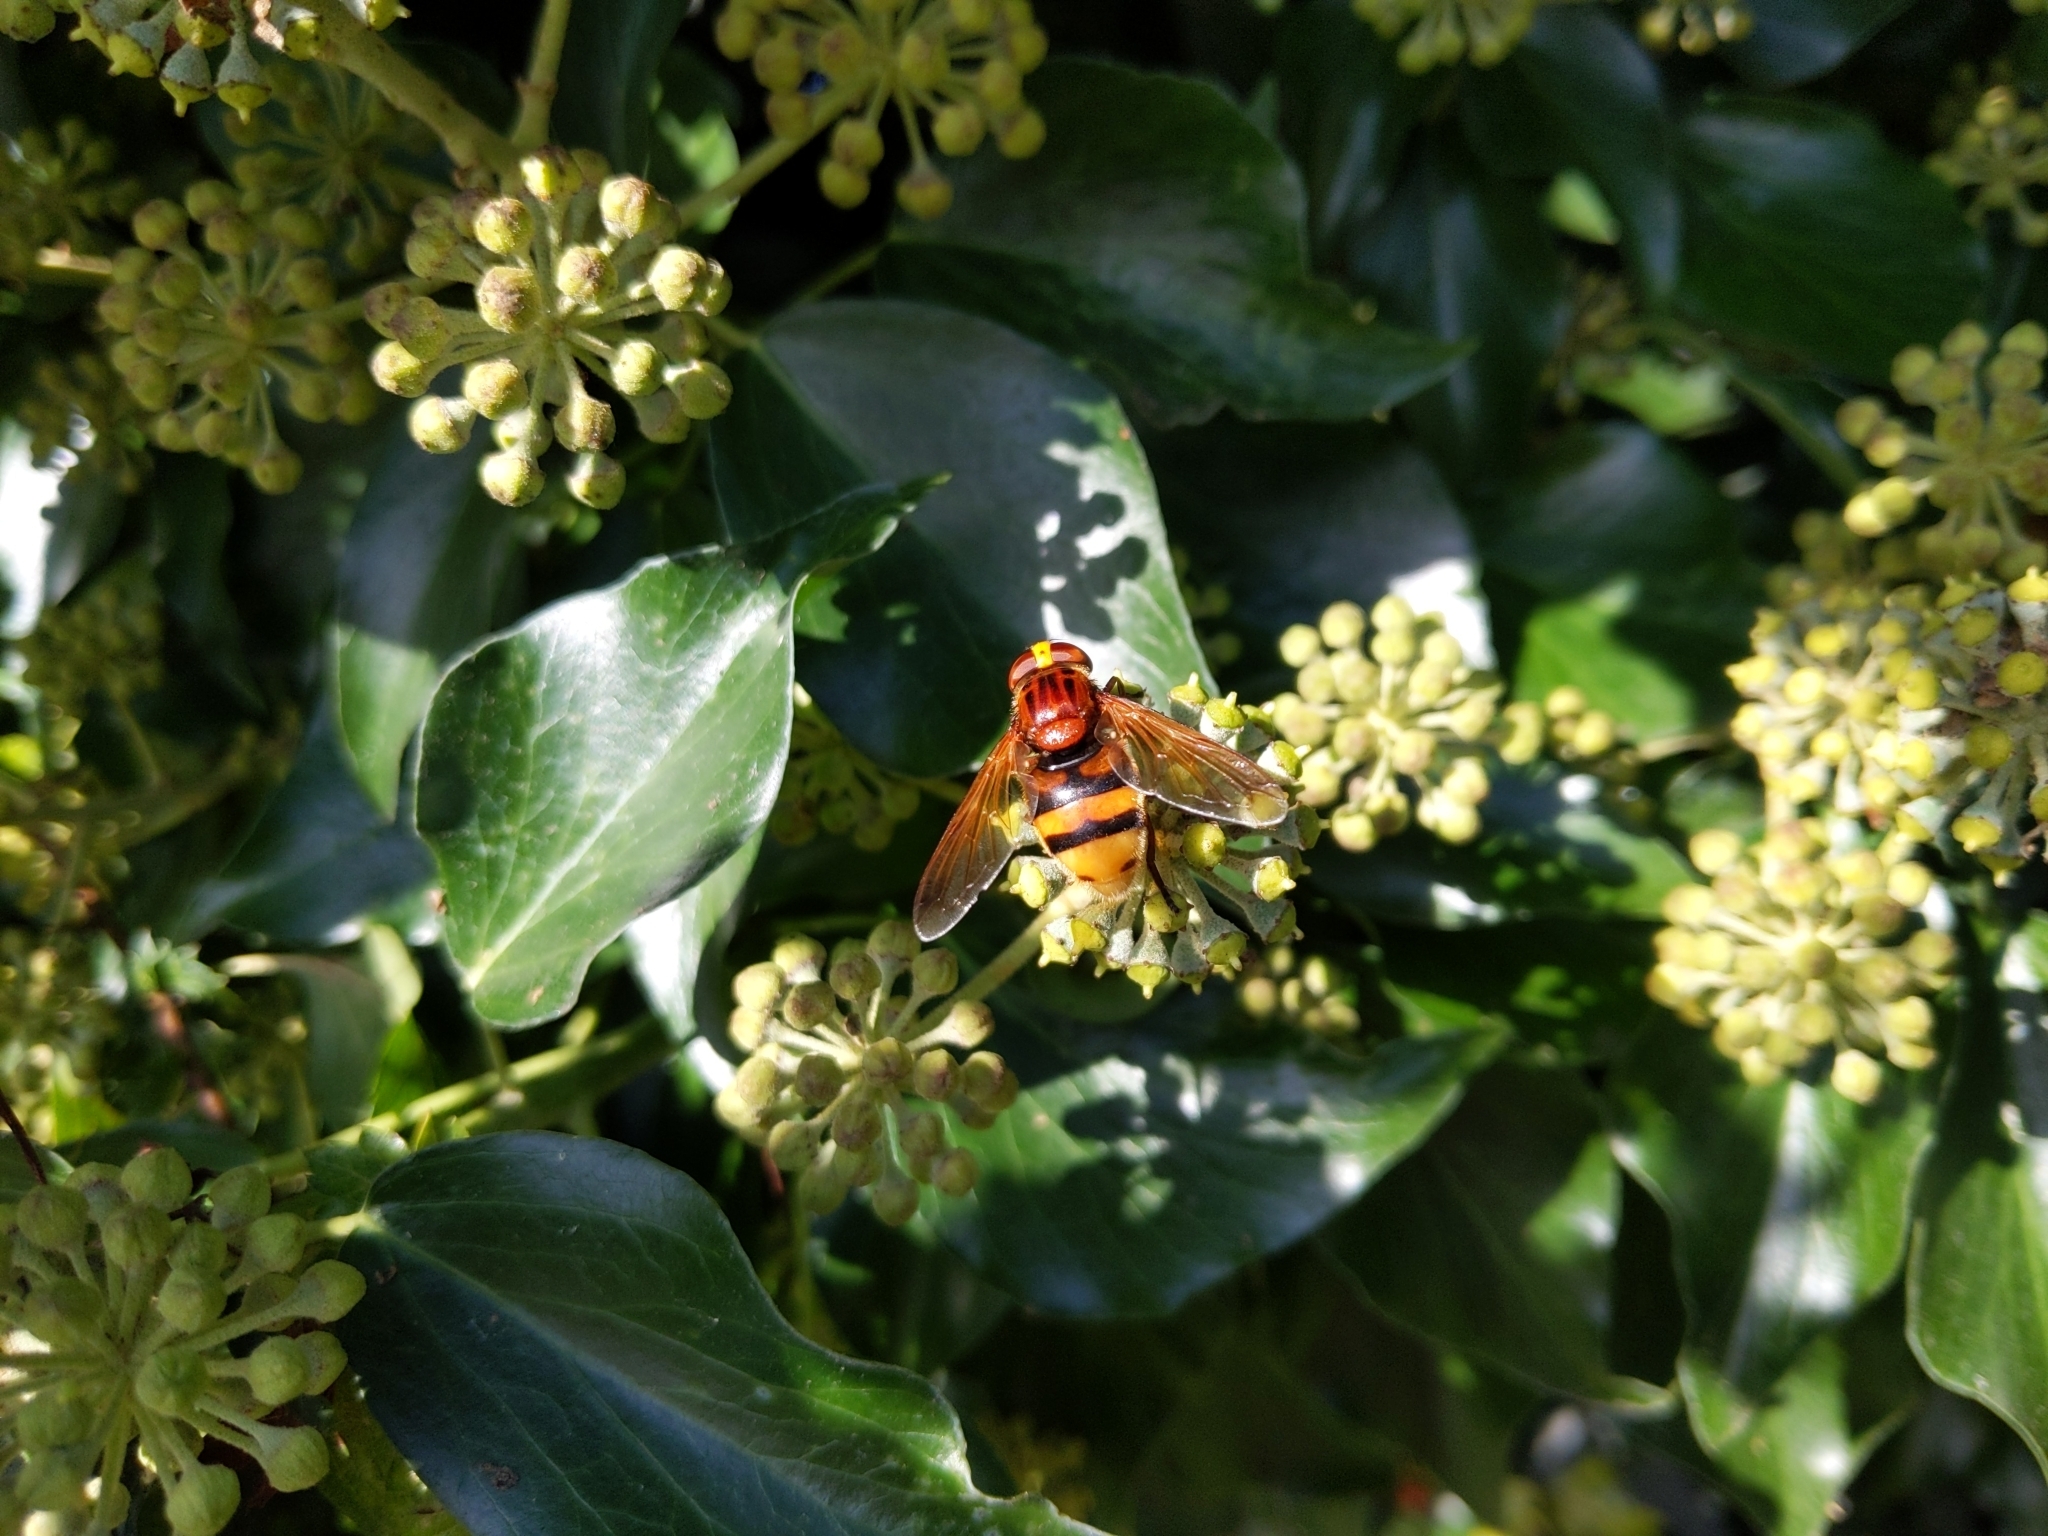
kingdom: Animalia
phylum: Arthropoda
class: Insecta
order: Diptera
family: Syrphidae
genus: Volucella
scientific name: Volucella zonaria
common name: Hornet hoverfly
